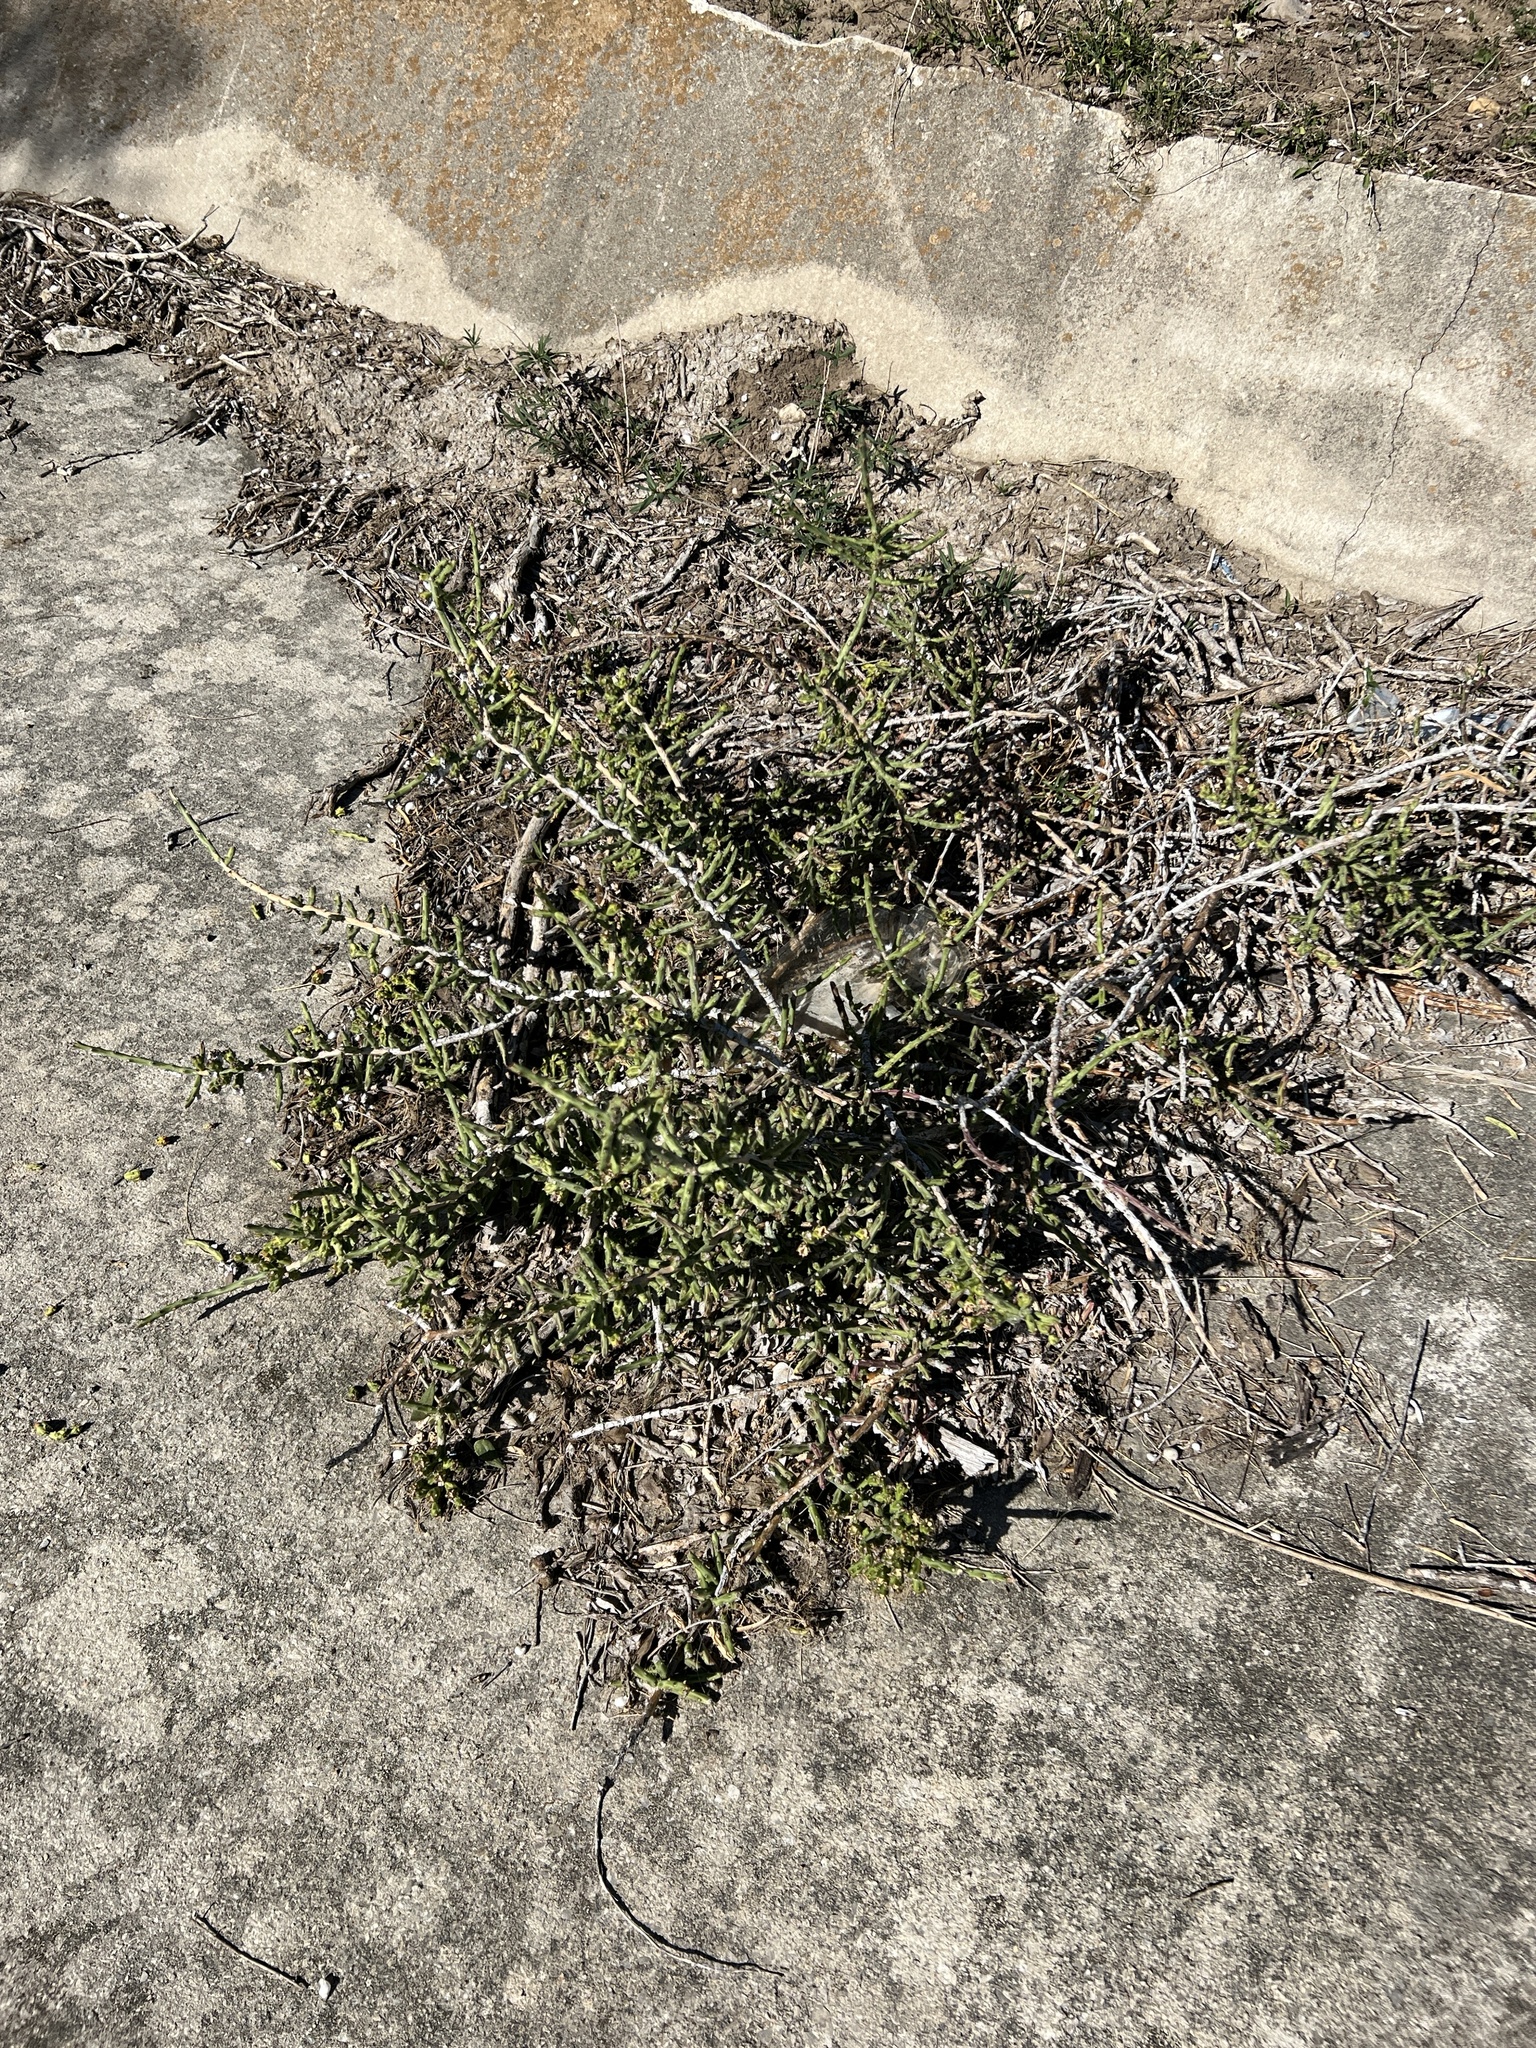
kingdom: Plantae
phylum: Tracheophyta
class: Magnoliopsida
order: Caryophyllales
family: Cactaceae
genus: Cylindropuntia
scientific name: Cylindropuntia leptocaulis
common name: Christmas cactus
